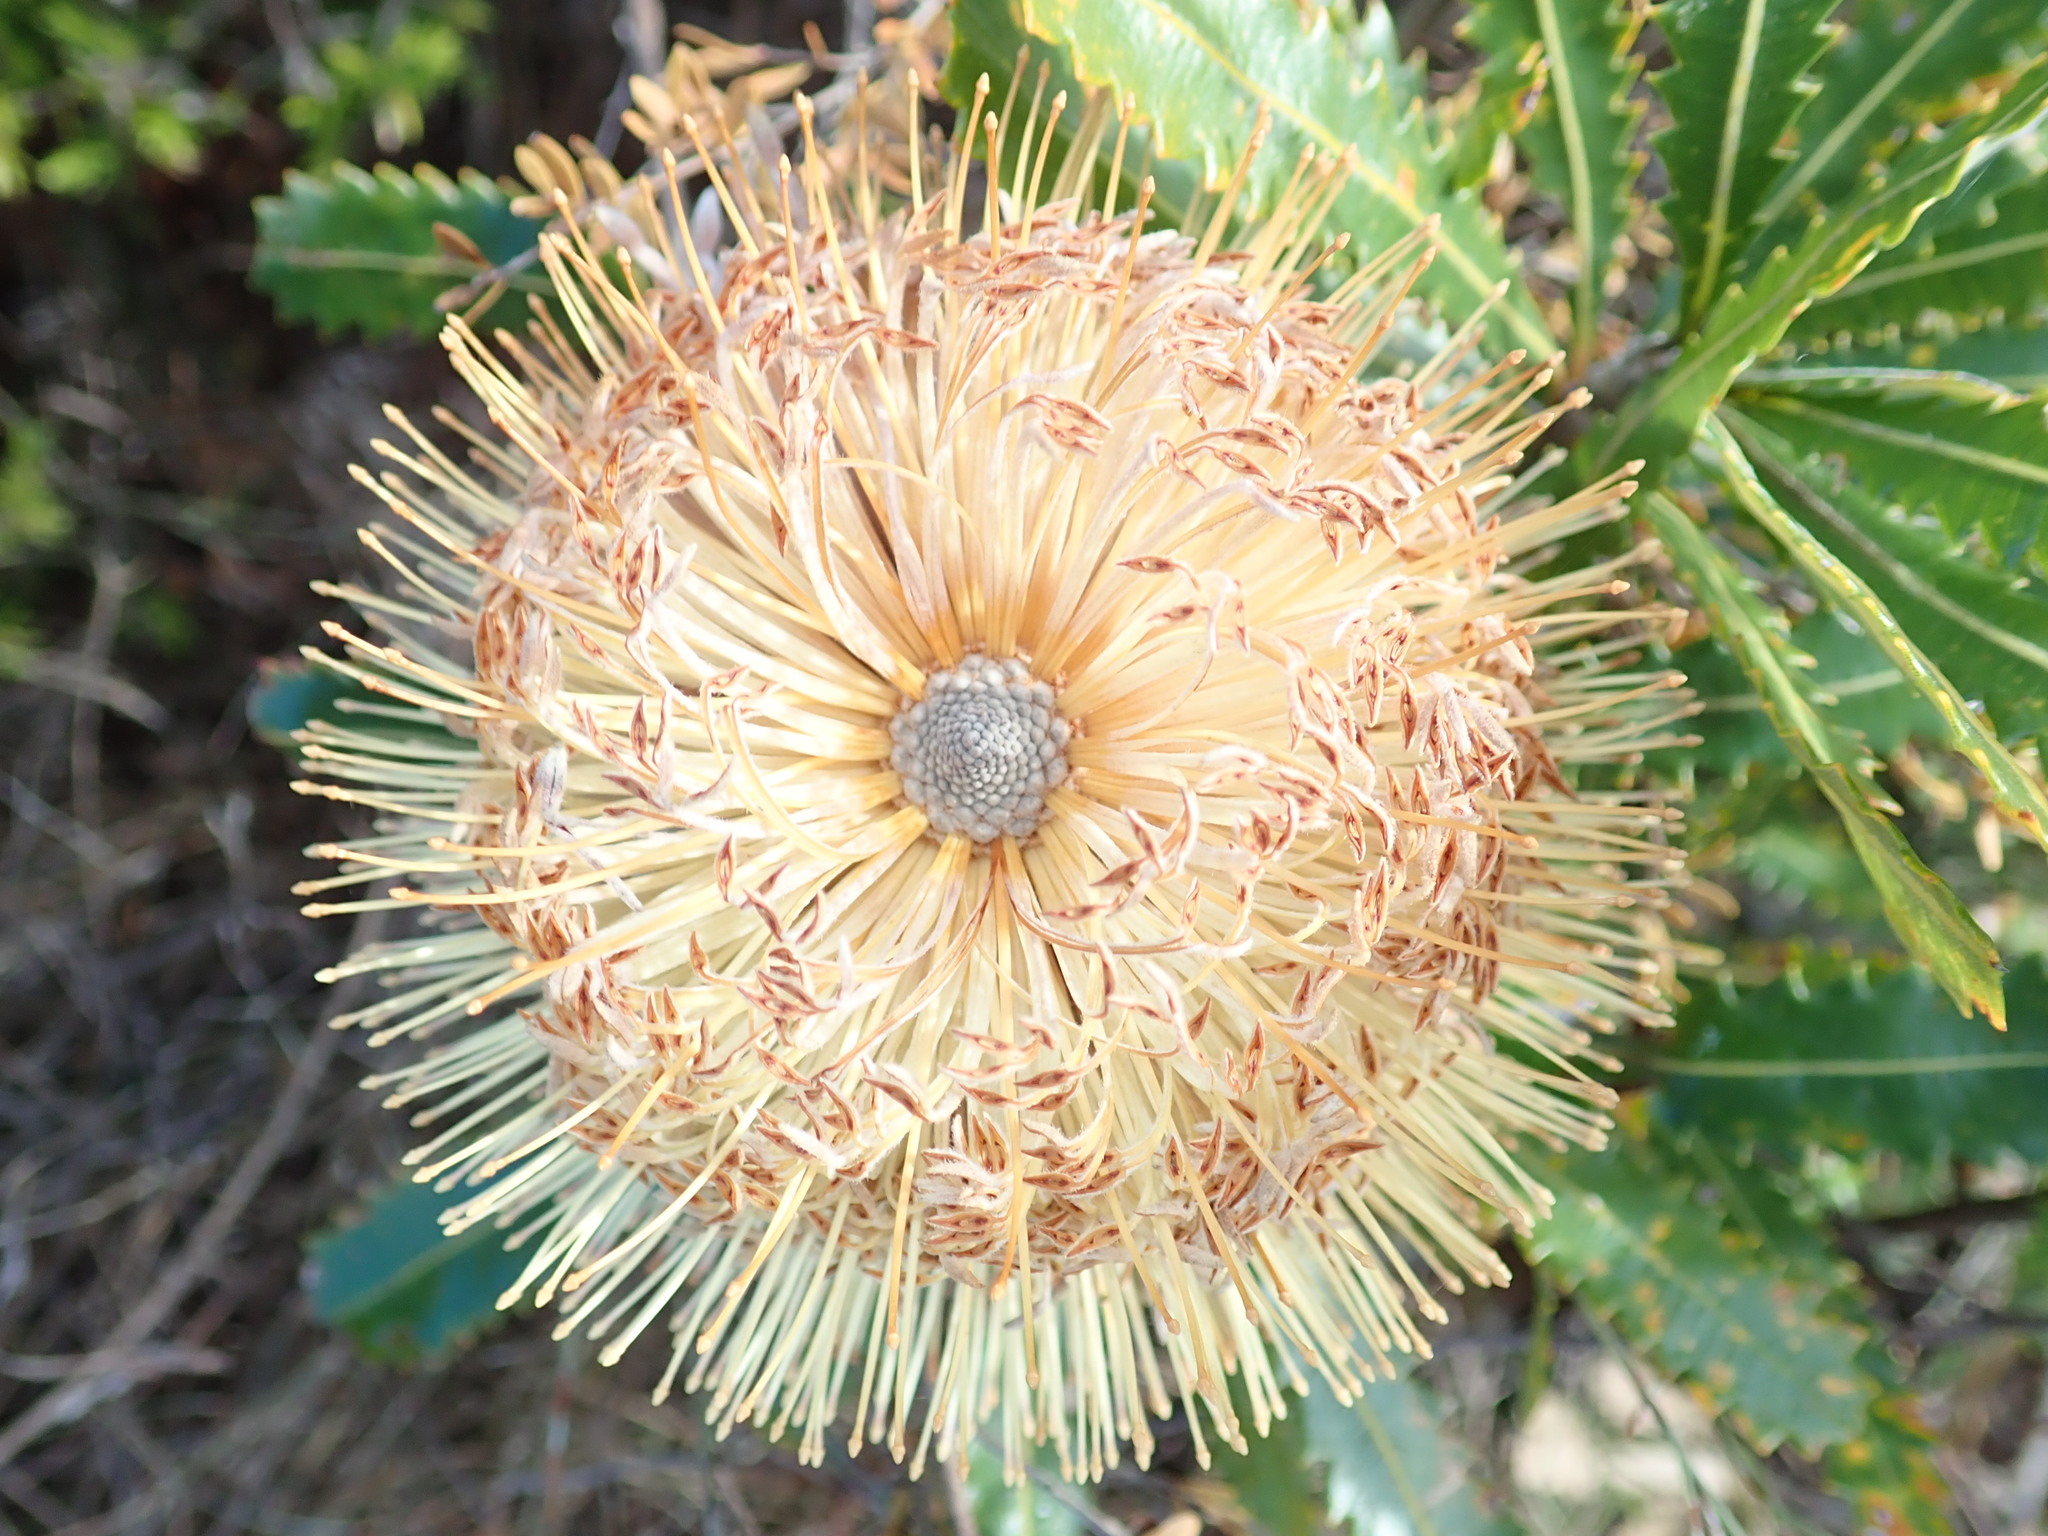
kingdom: Plantae
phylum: Tracheophyta
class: Magnoliopsida
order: Proteales
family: Proteaceae
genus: Banksia
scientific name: Banksia aemula
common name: Wallum banksia
